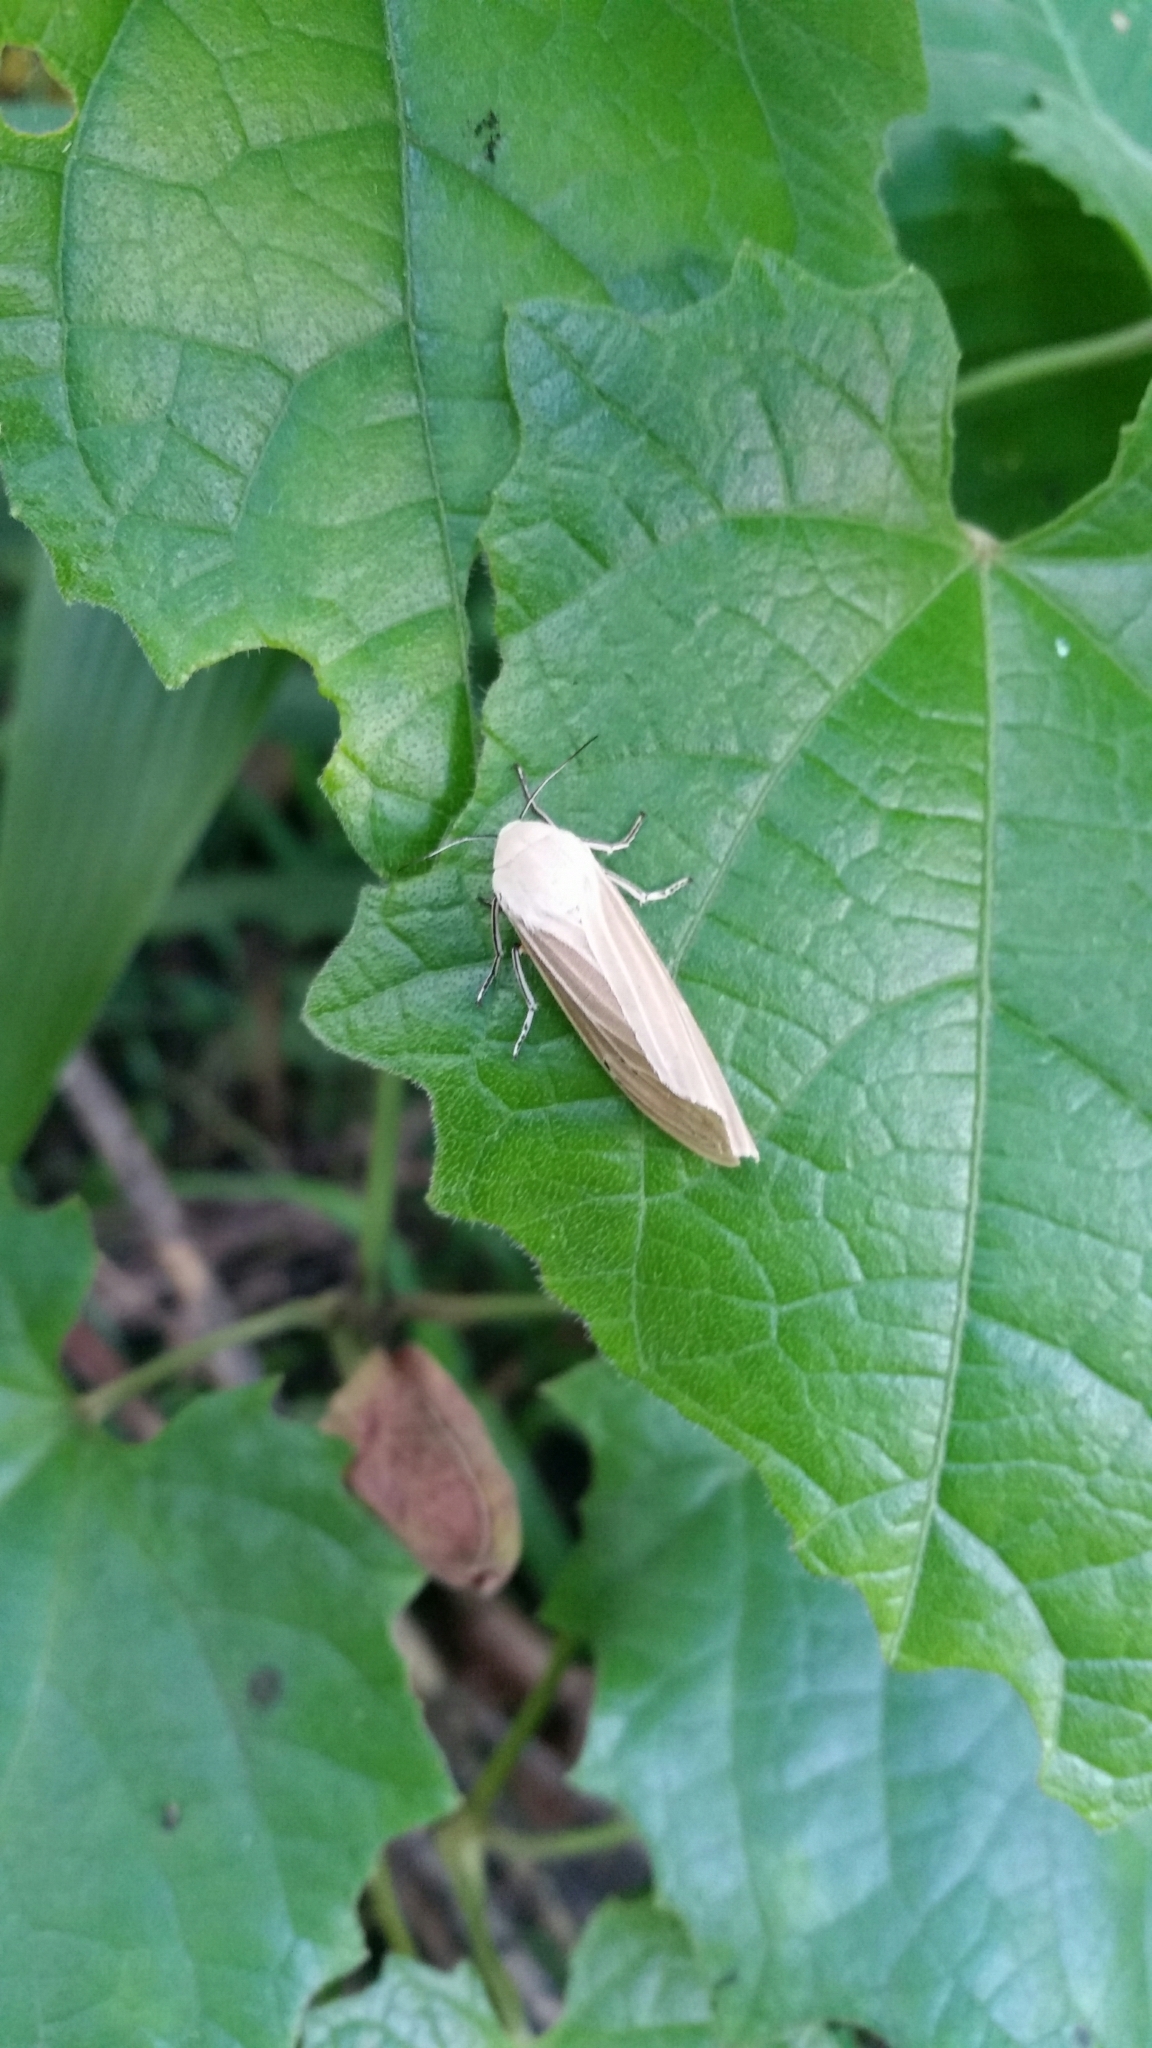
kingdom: Animalia
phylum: Arthropoda
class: Insecta
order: Lepidoptera
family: Erebidae
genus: Creatonotos
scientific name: Creatonotos transiens
